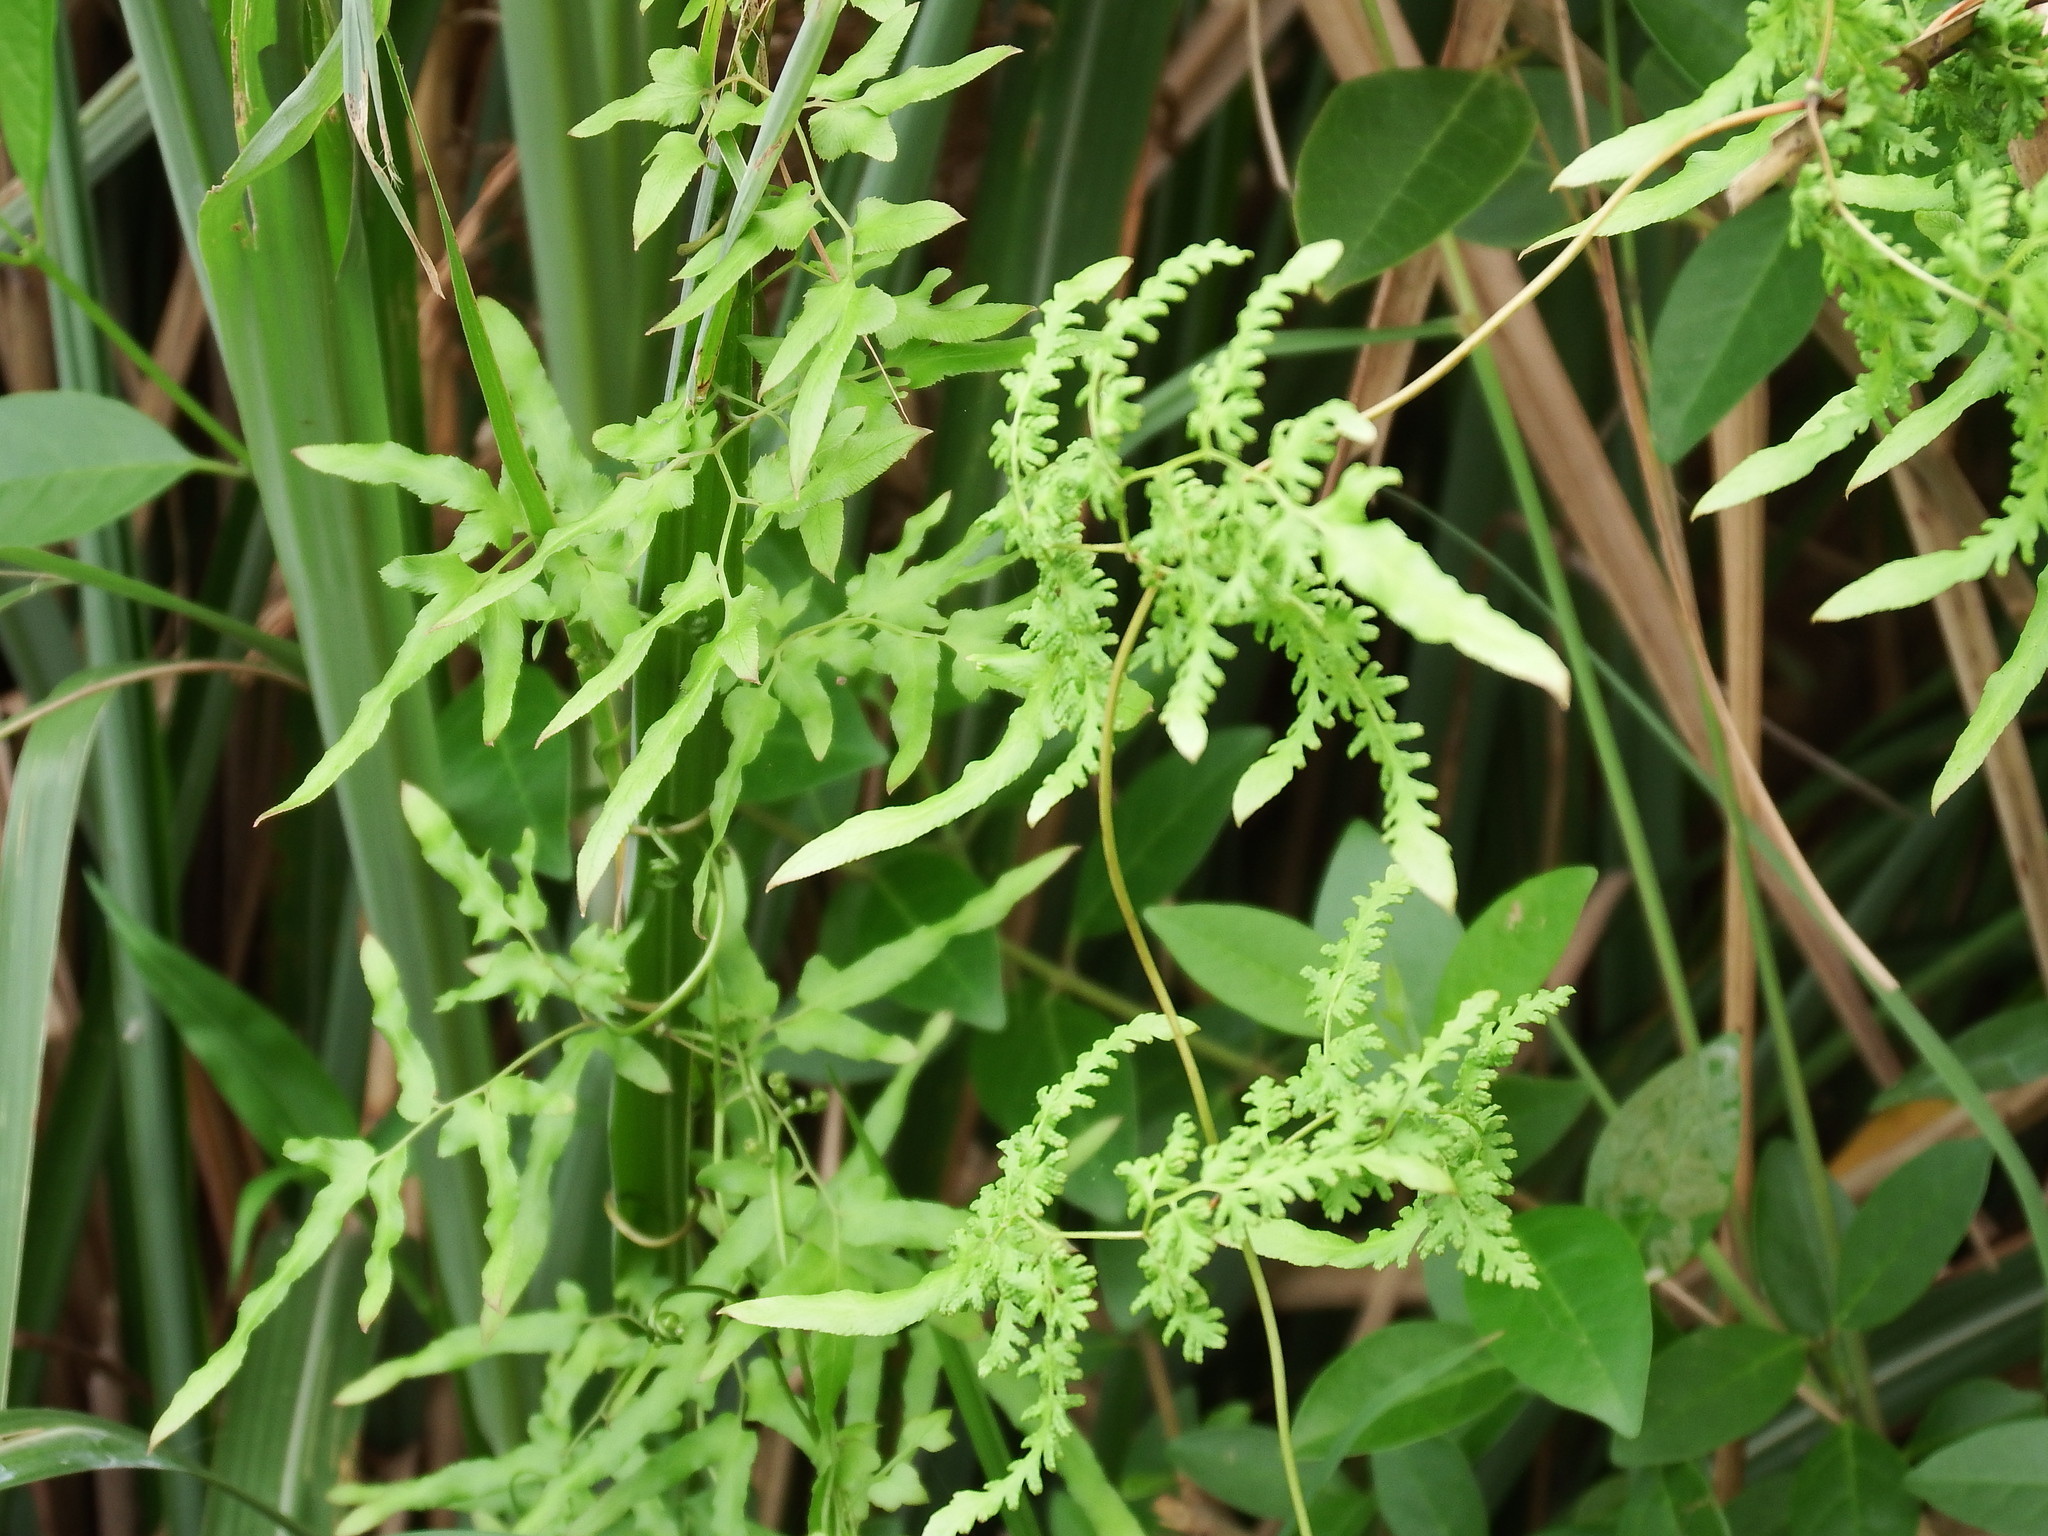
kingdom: Plantae
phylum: Tracheophyta
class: Polypodiopsida
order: Schizaeales
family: Lygodiaceae
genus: Lygodium
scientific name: Lygodium japonicum
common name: Japanese climbing fern
